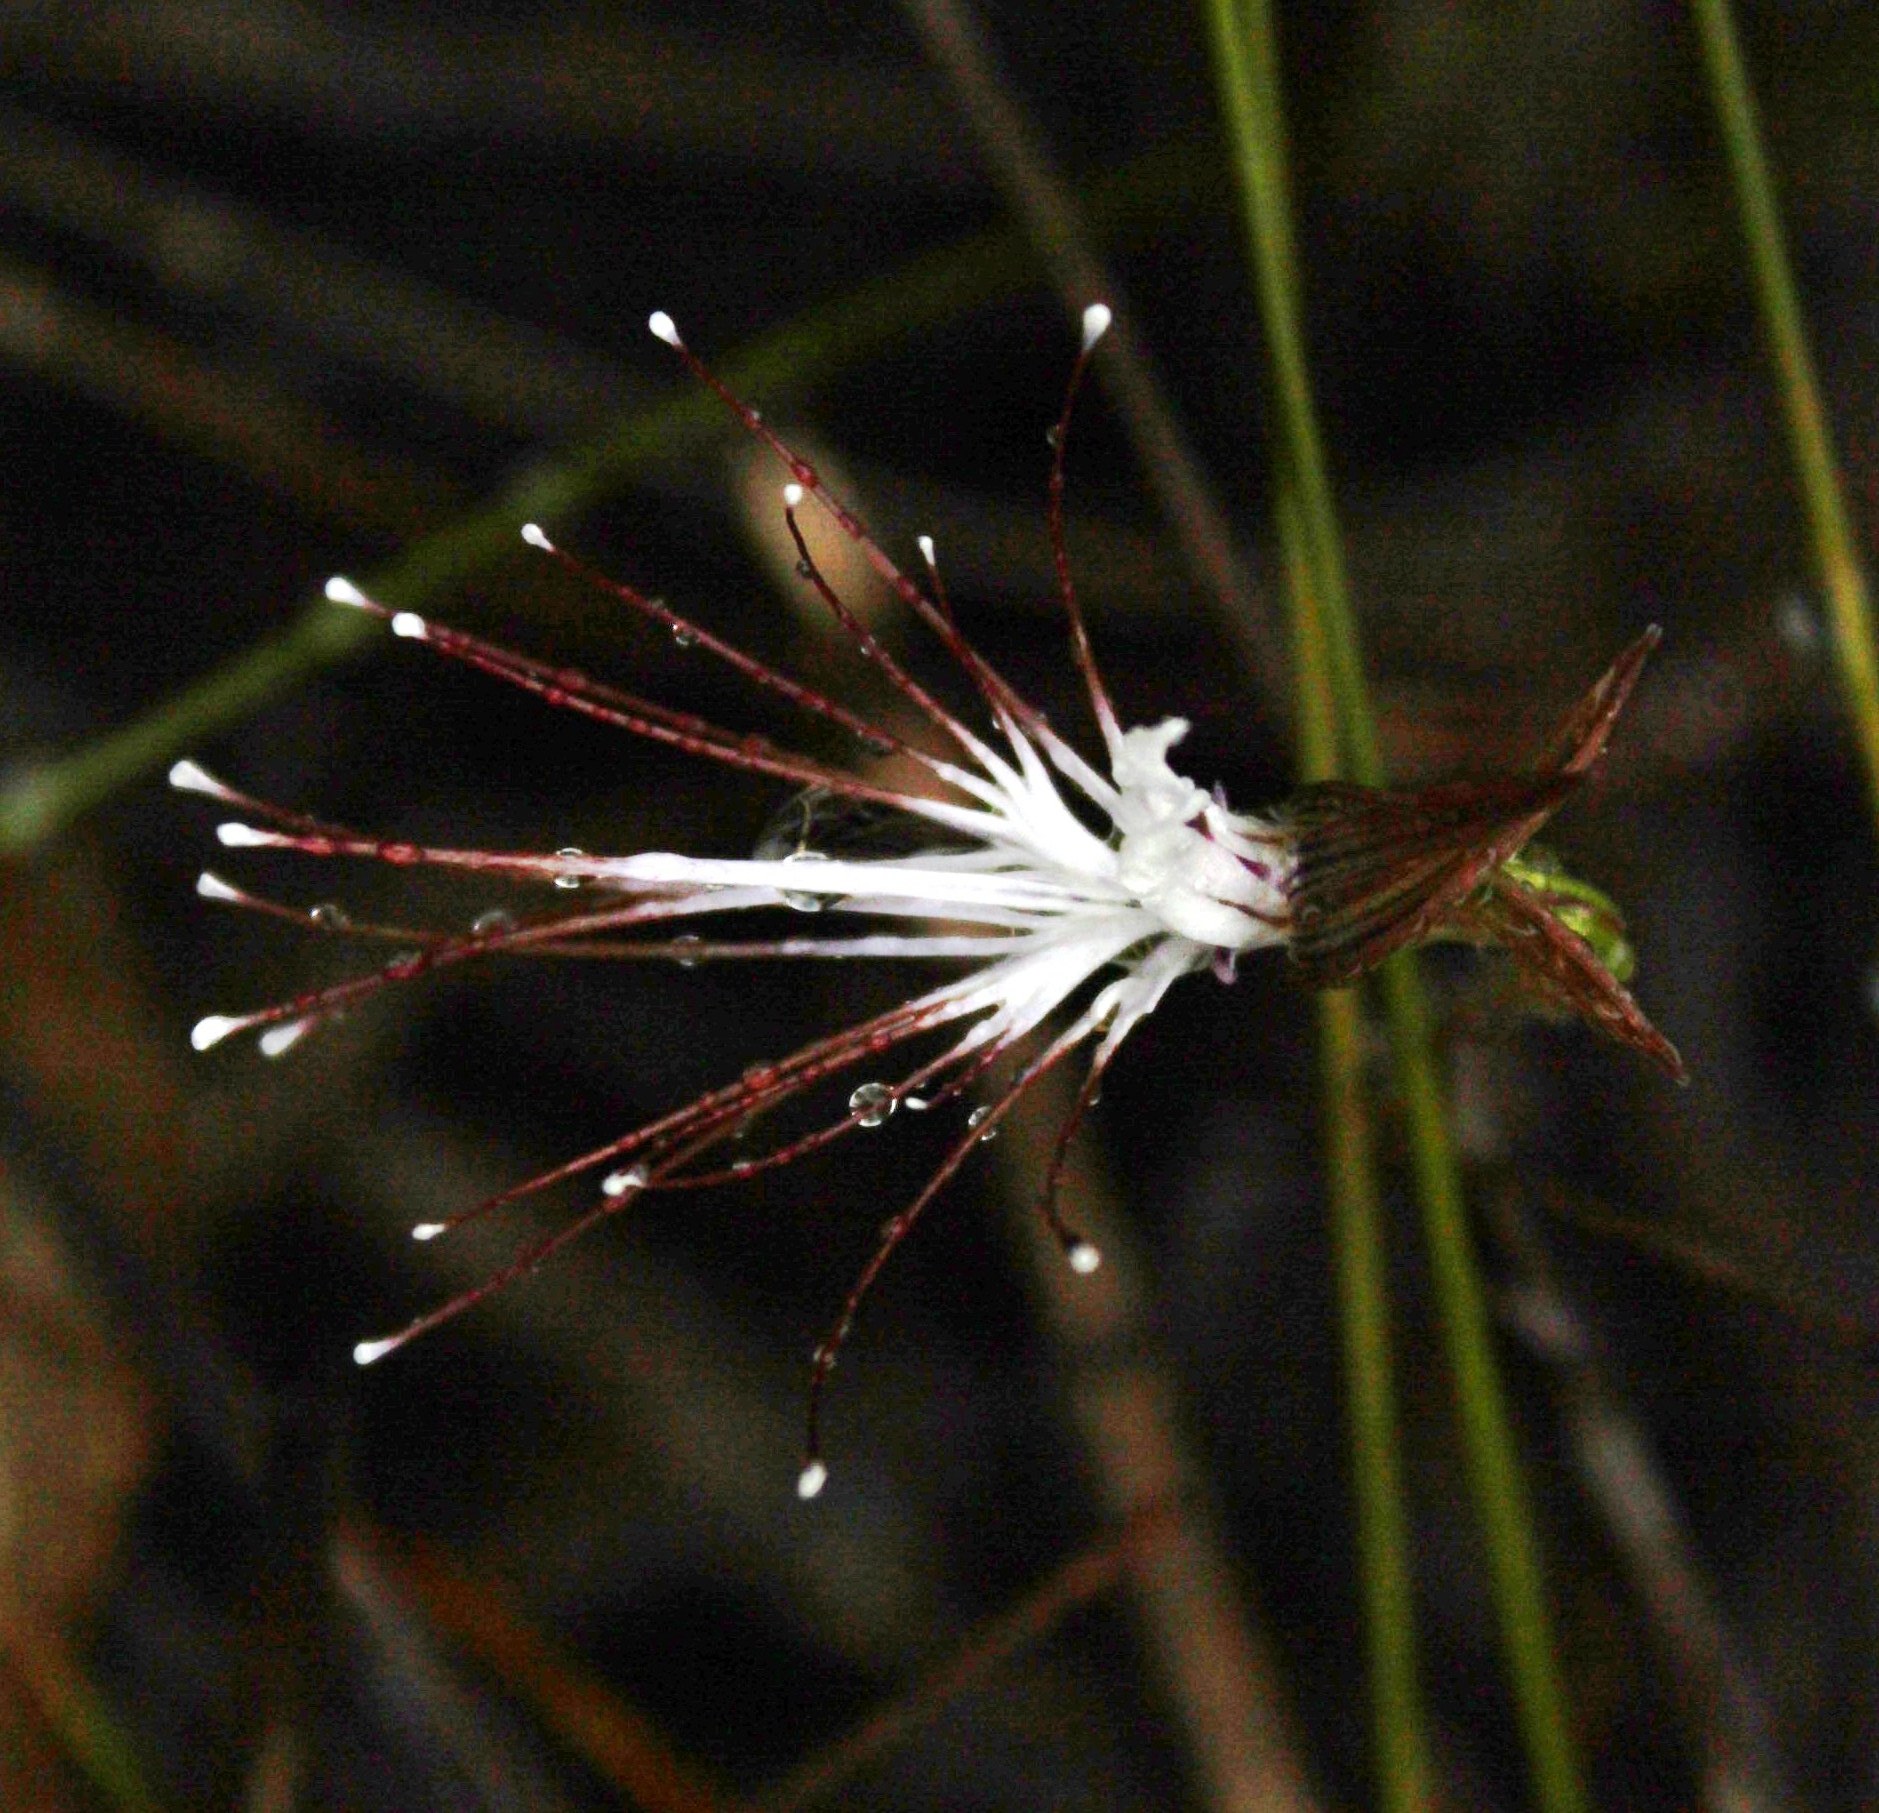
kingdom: Plantae
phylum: Tracheophyta
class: Liliopsida
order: Asparagales
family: Orchidaceae
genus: Holothrix
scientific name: Holothrix etheliae
